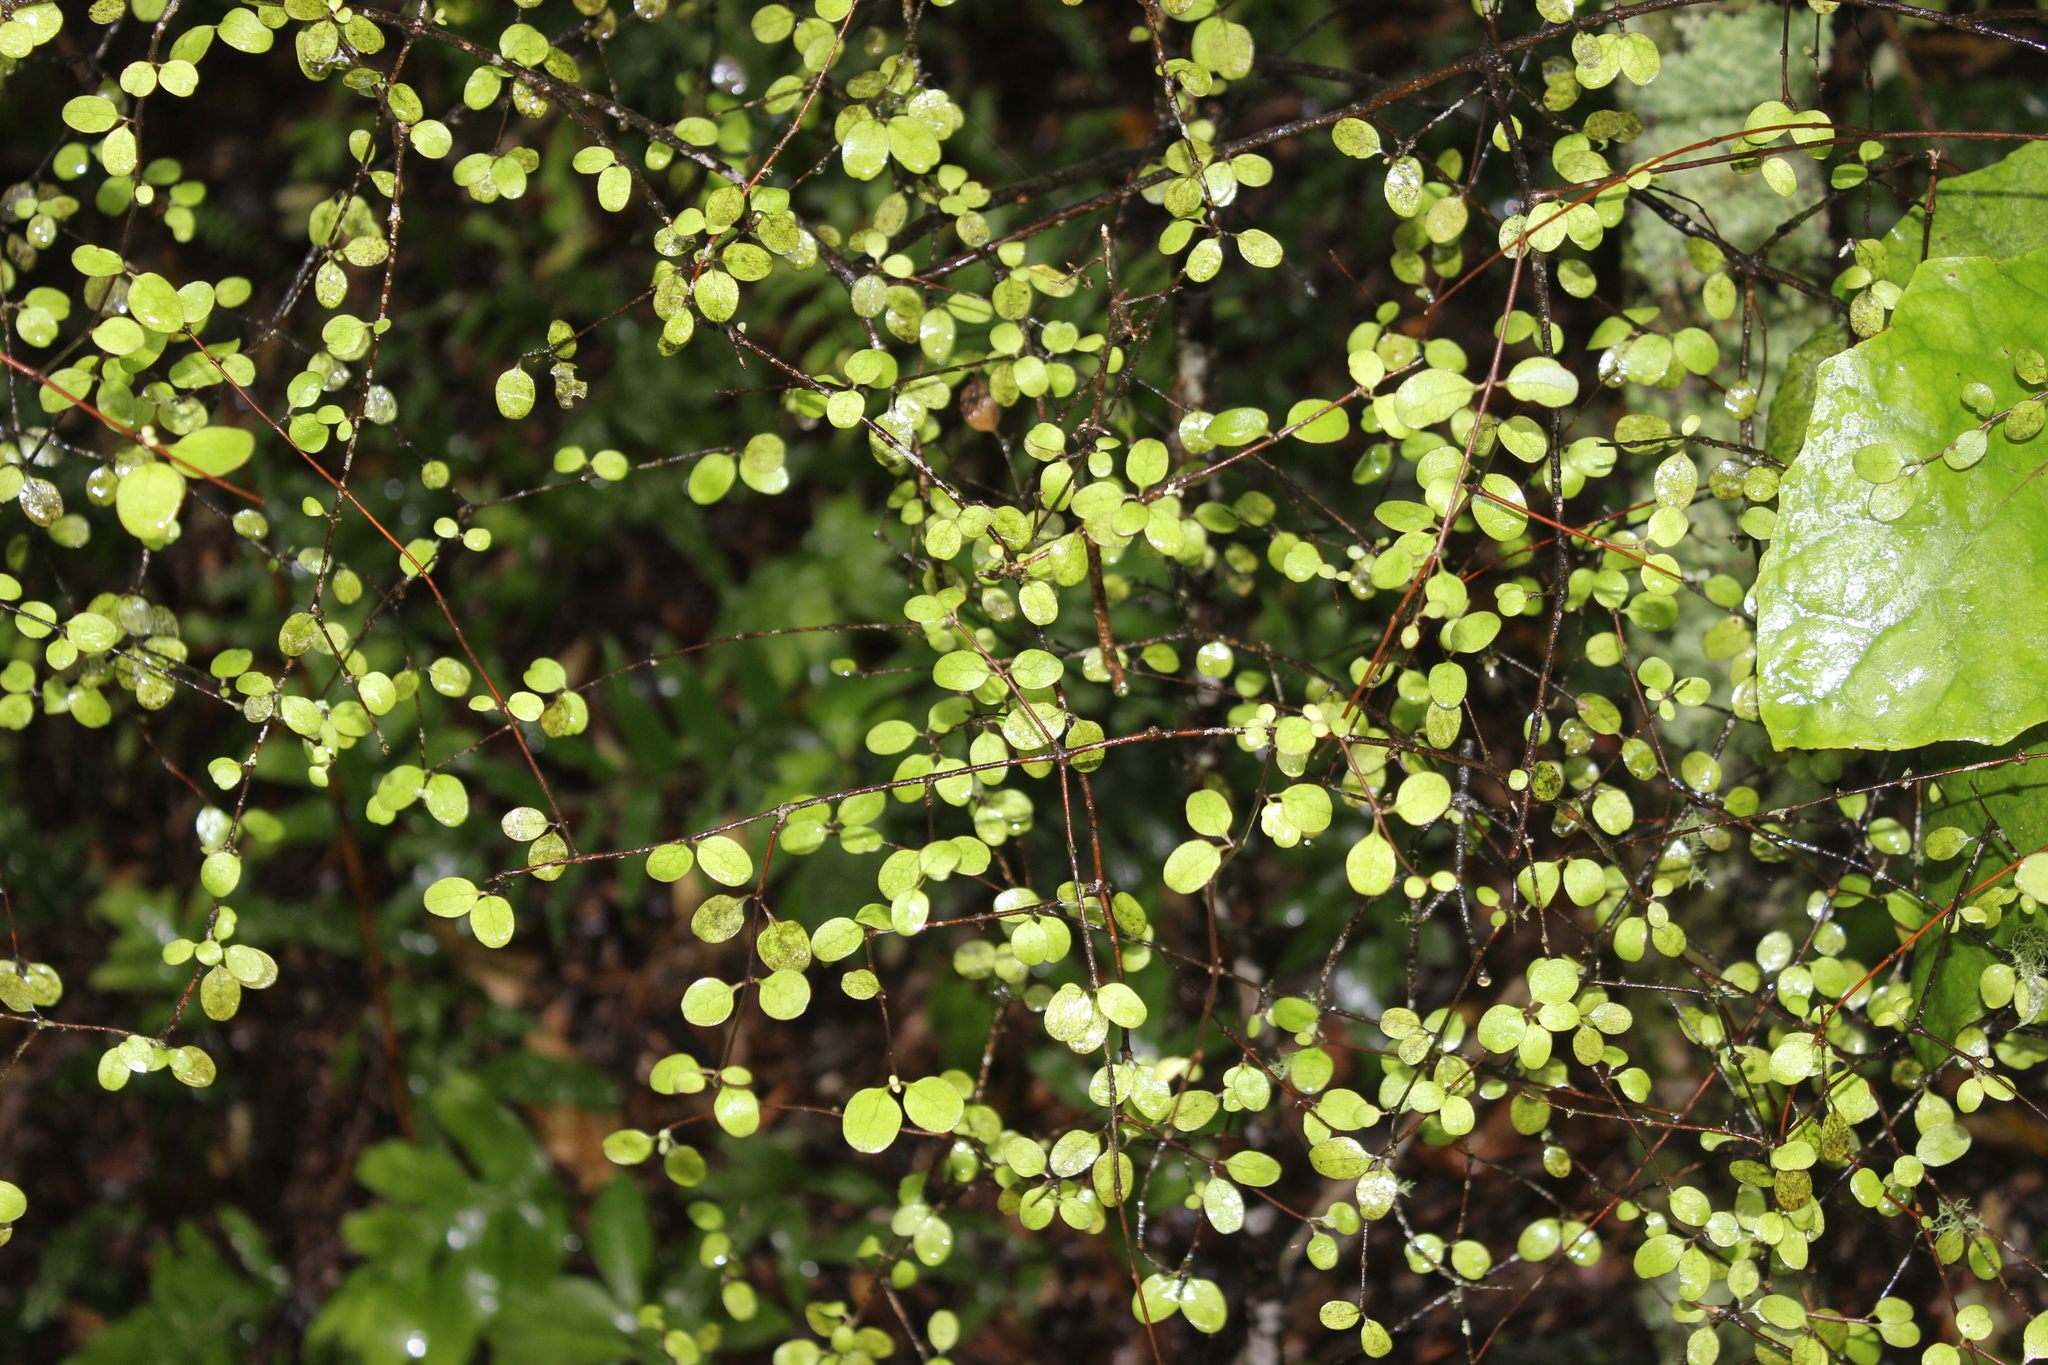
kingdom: Plantae
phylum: Tracheophyta
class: Magnoliopsida
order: Gentianales
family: Rubiaceae
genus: Coprosma
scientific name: Coprosma crassifolia
